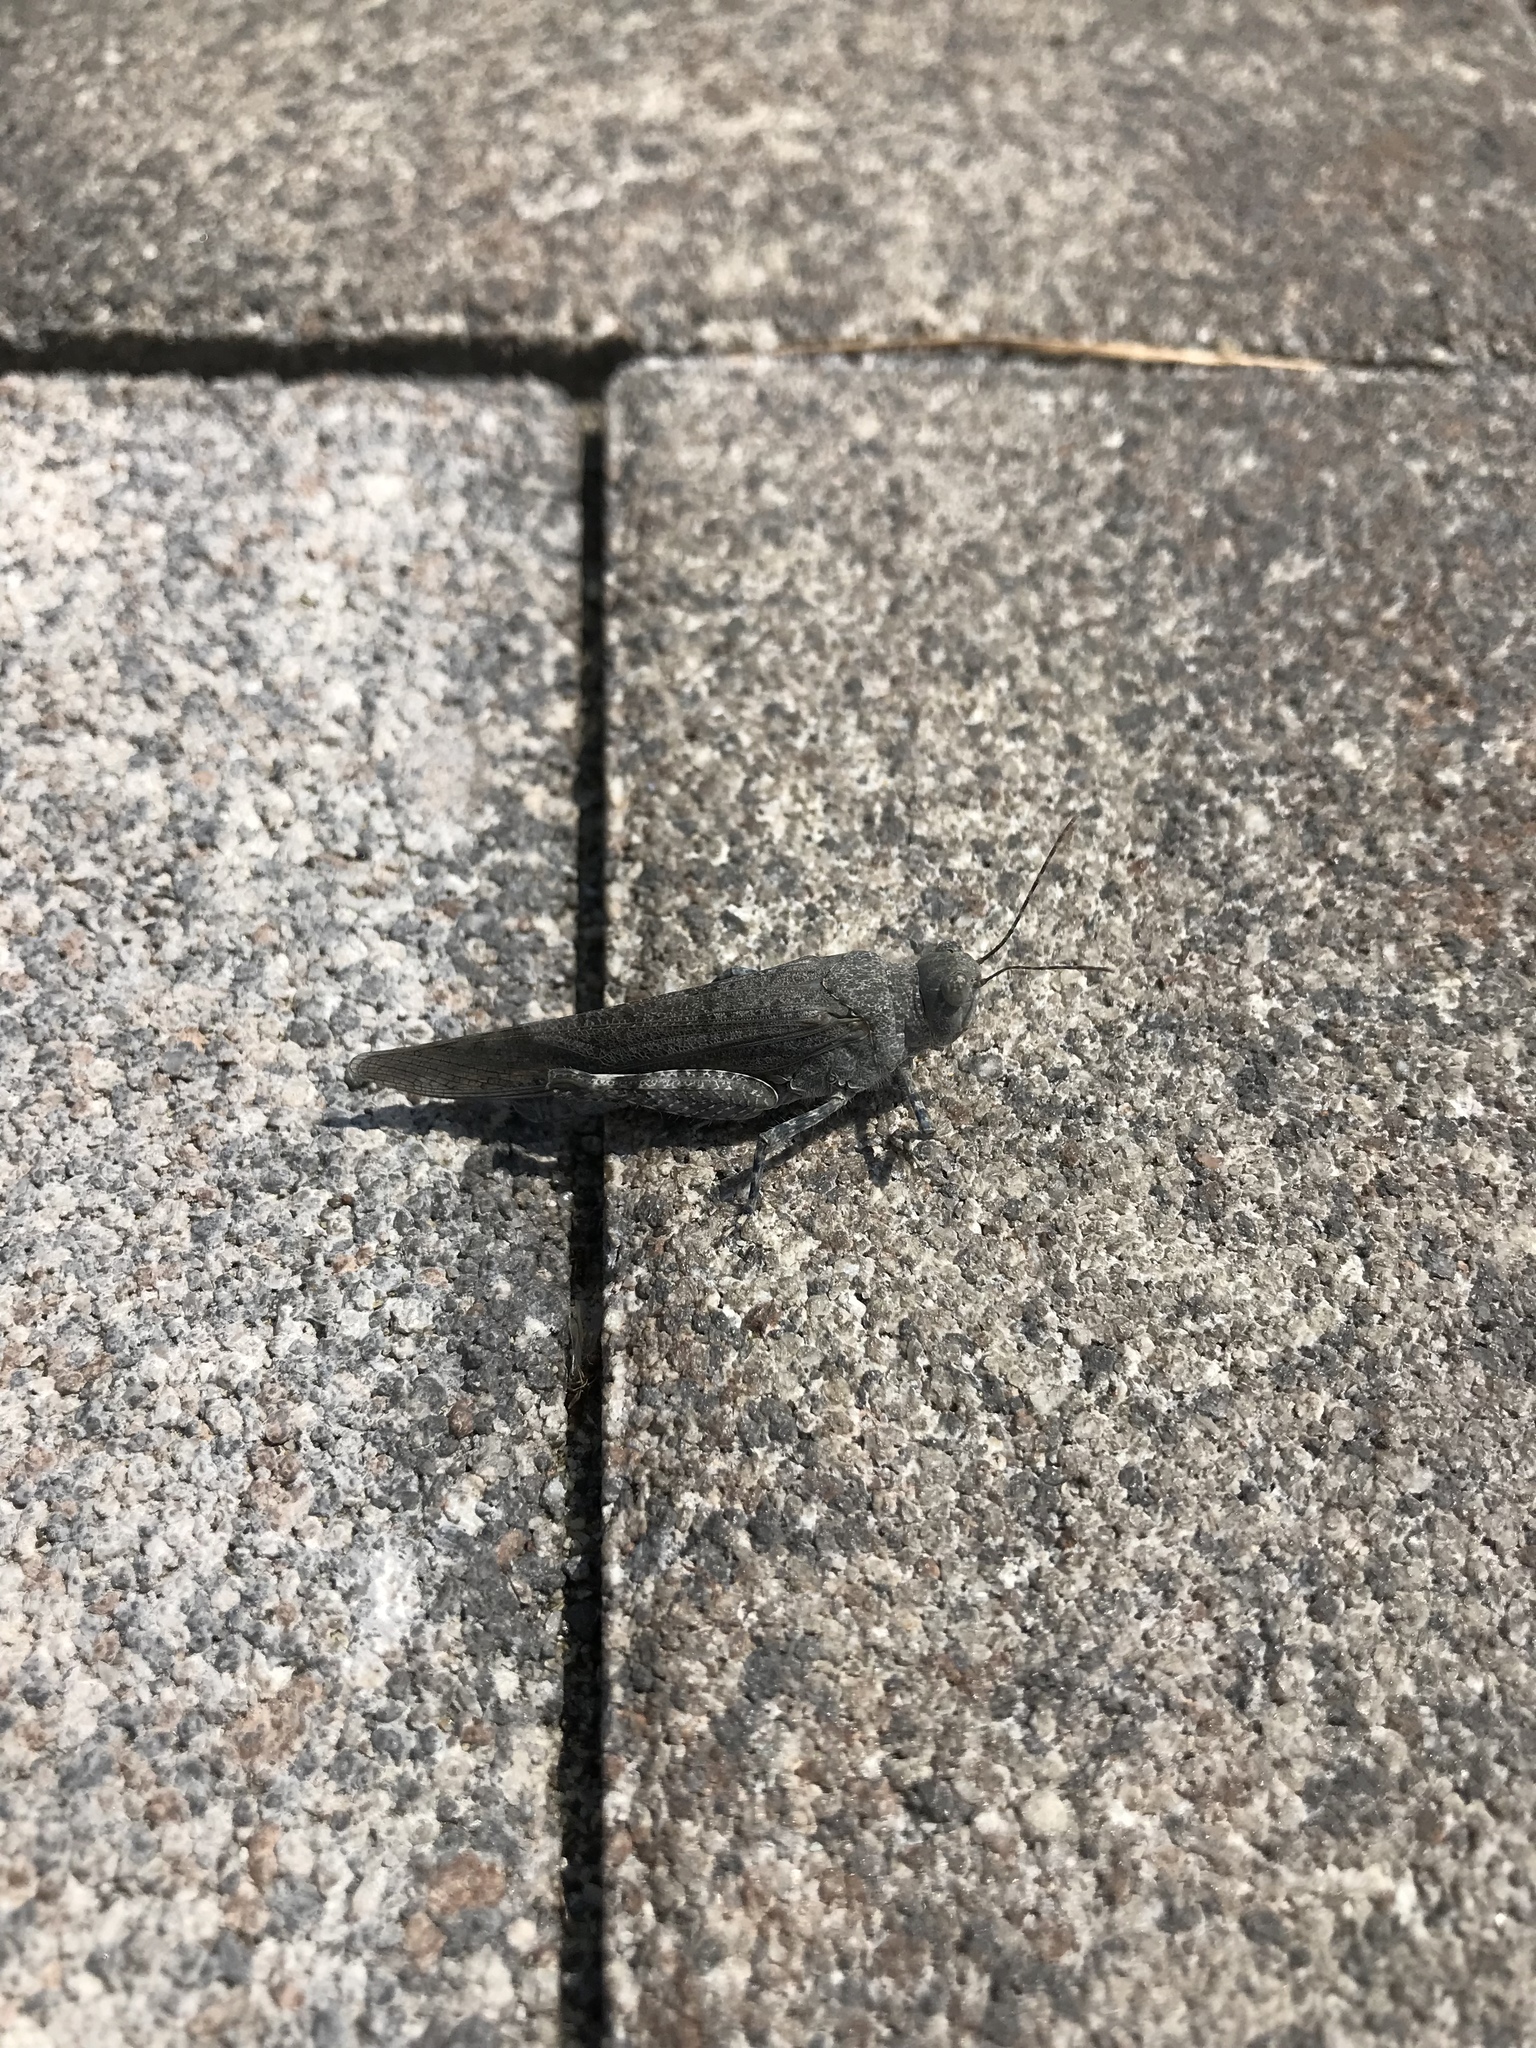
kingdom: Animalia
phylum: Arthropoda
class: Insecta
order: Orthoptera
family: Acrididae
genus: Sphingonotus
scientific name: Sphingonotus caerulans
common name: Blue-winged locust
